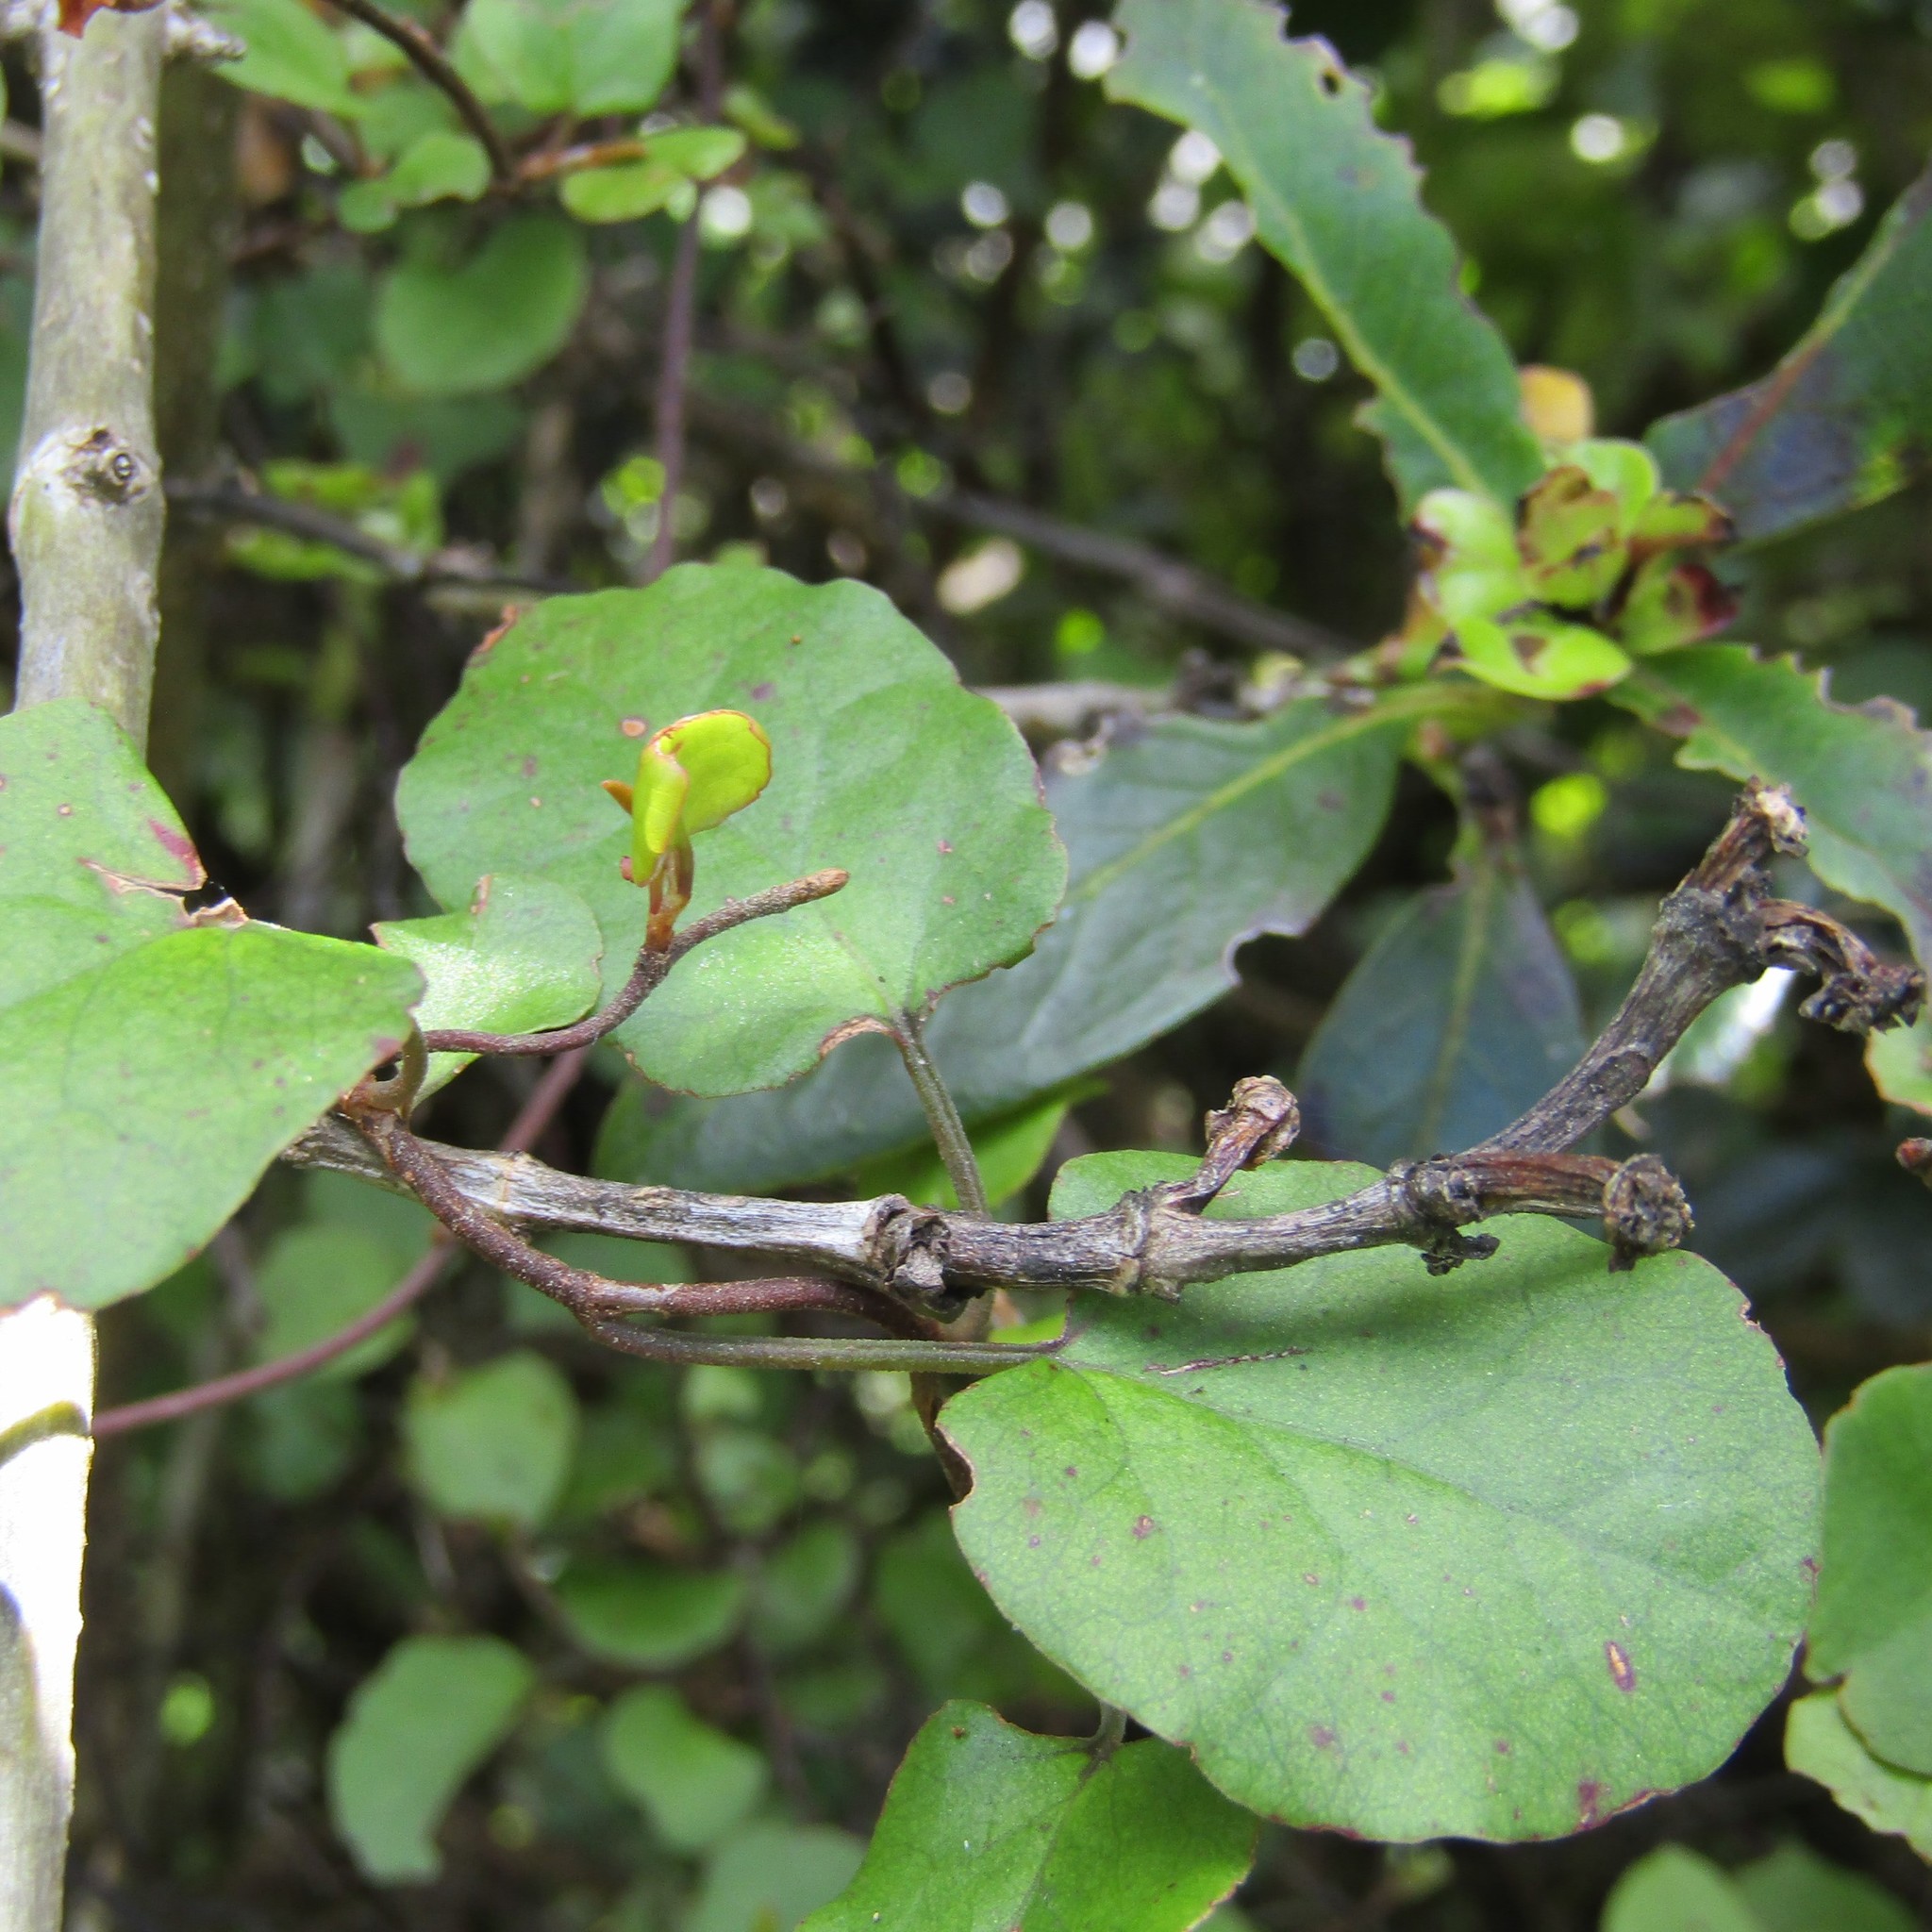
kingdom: Plantae
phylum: Tracheophyta
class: Magnoliopsida
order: Caryophyllales
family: Polygonaceae
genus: Muehlenbeckia
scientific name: Muehlenbeckia australis
